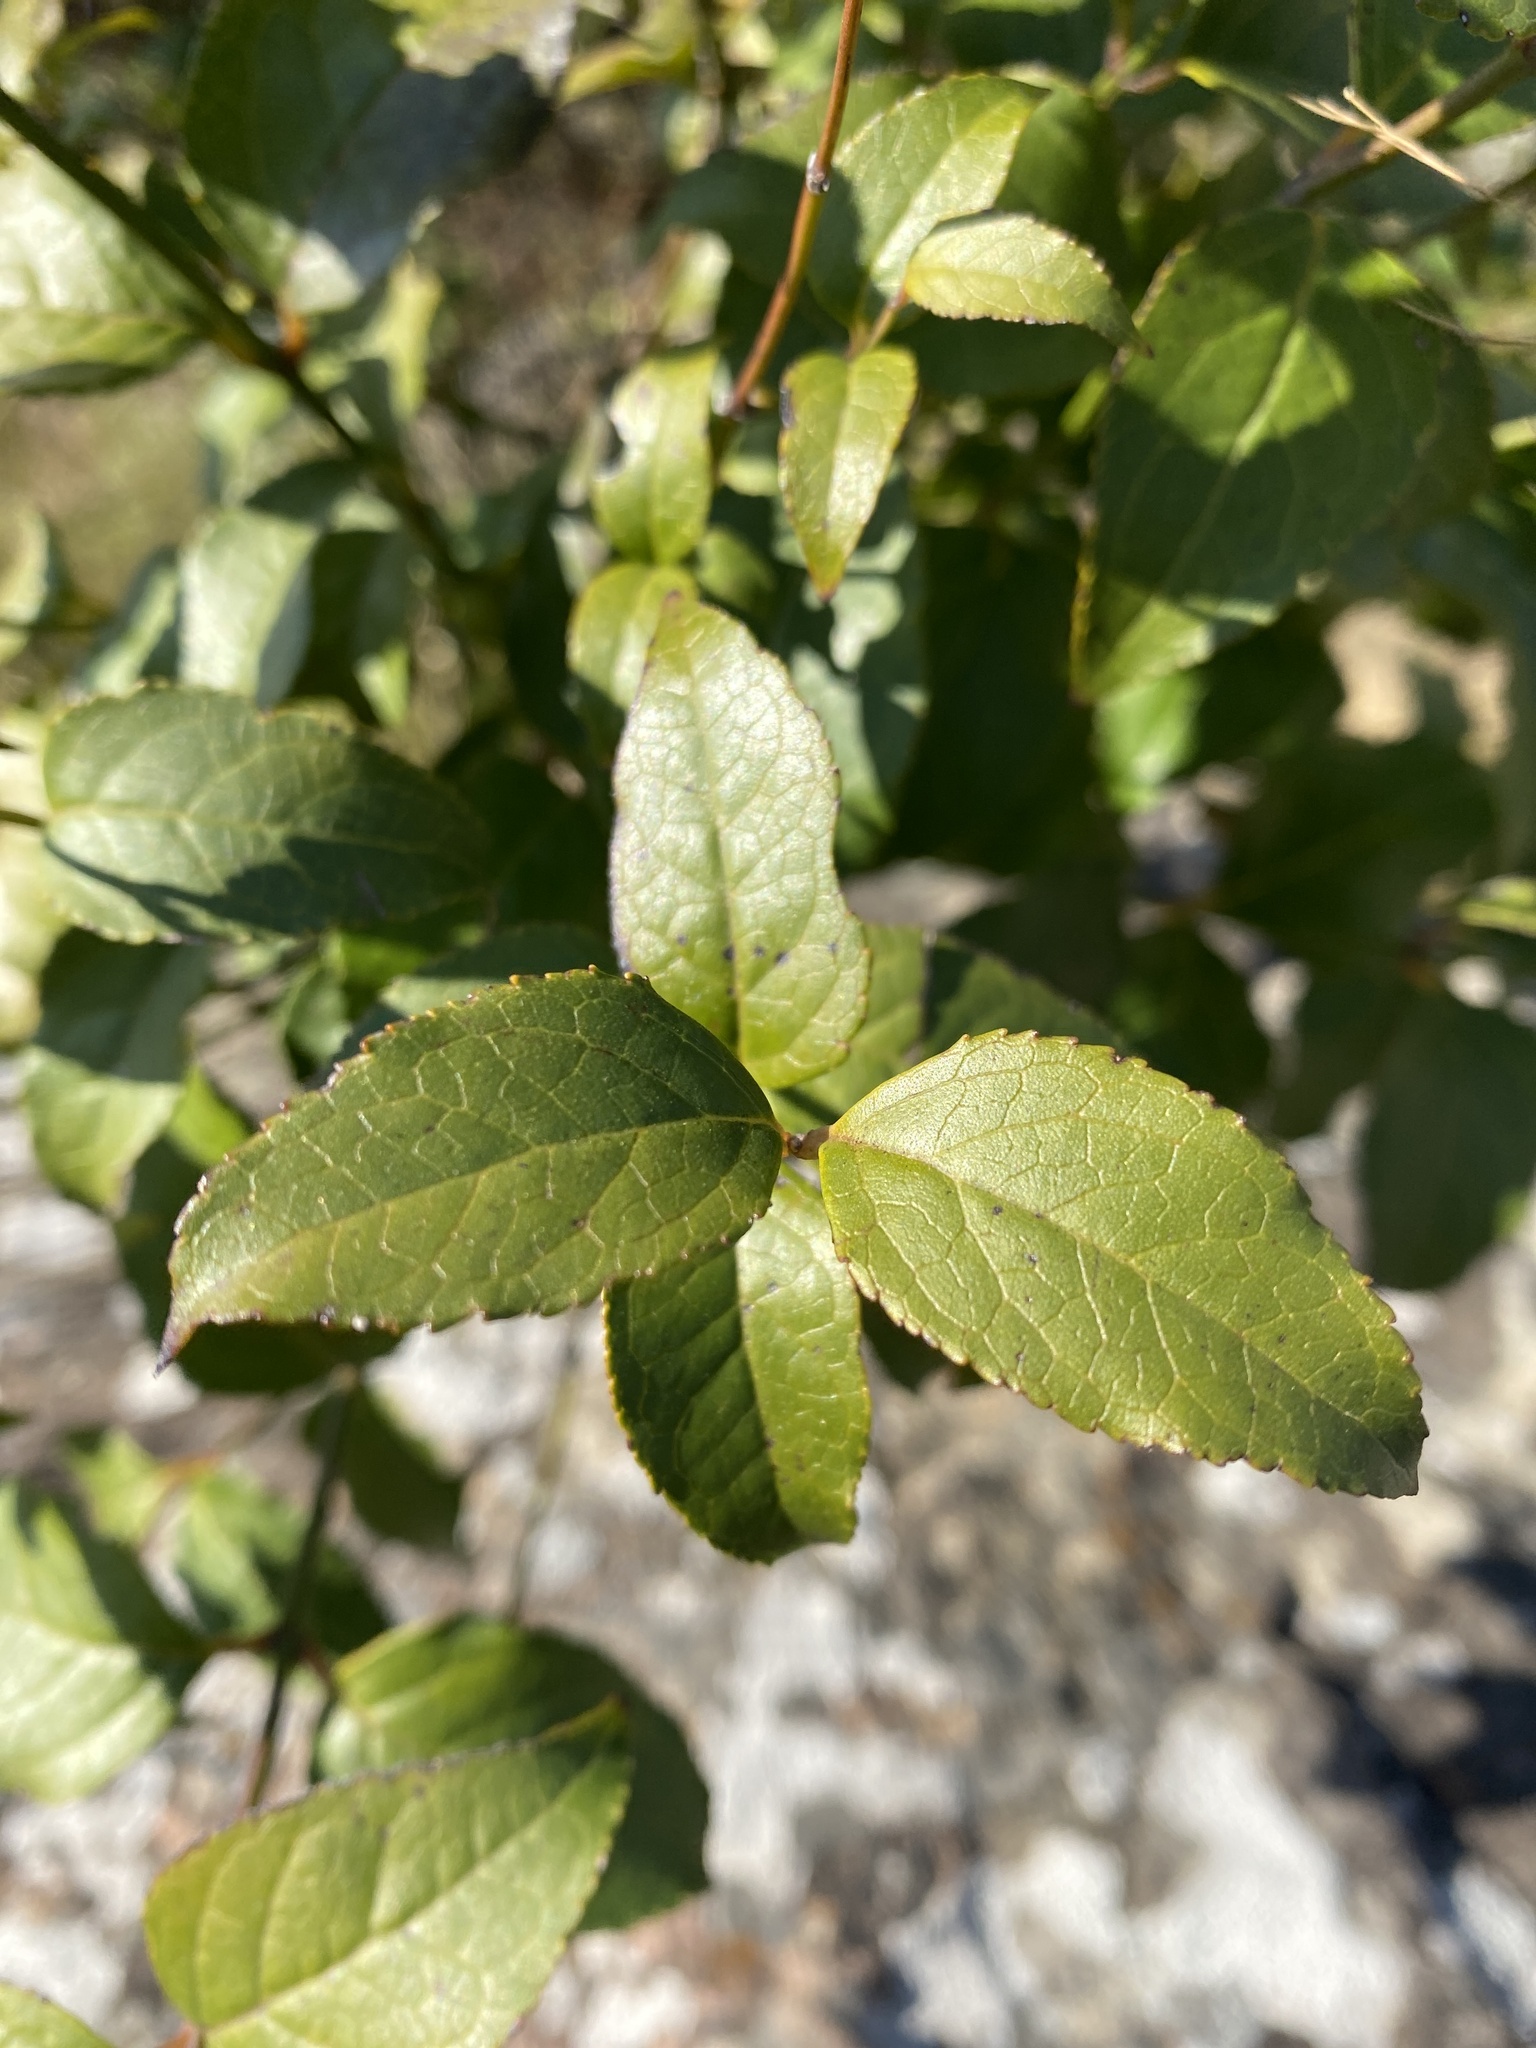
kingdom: Plantae
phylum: Tracheophyta
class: Magnoliopsida
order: Lamiales
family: Stilbaceae
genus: Halleria
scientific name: Halleria lucida
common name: Tree fuschia
